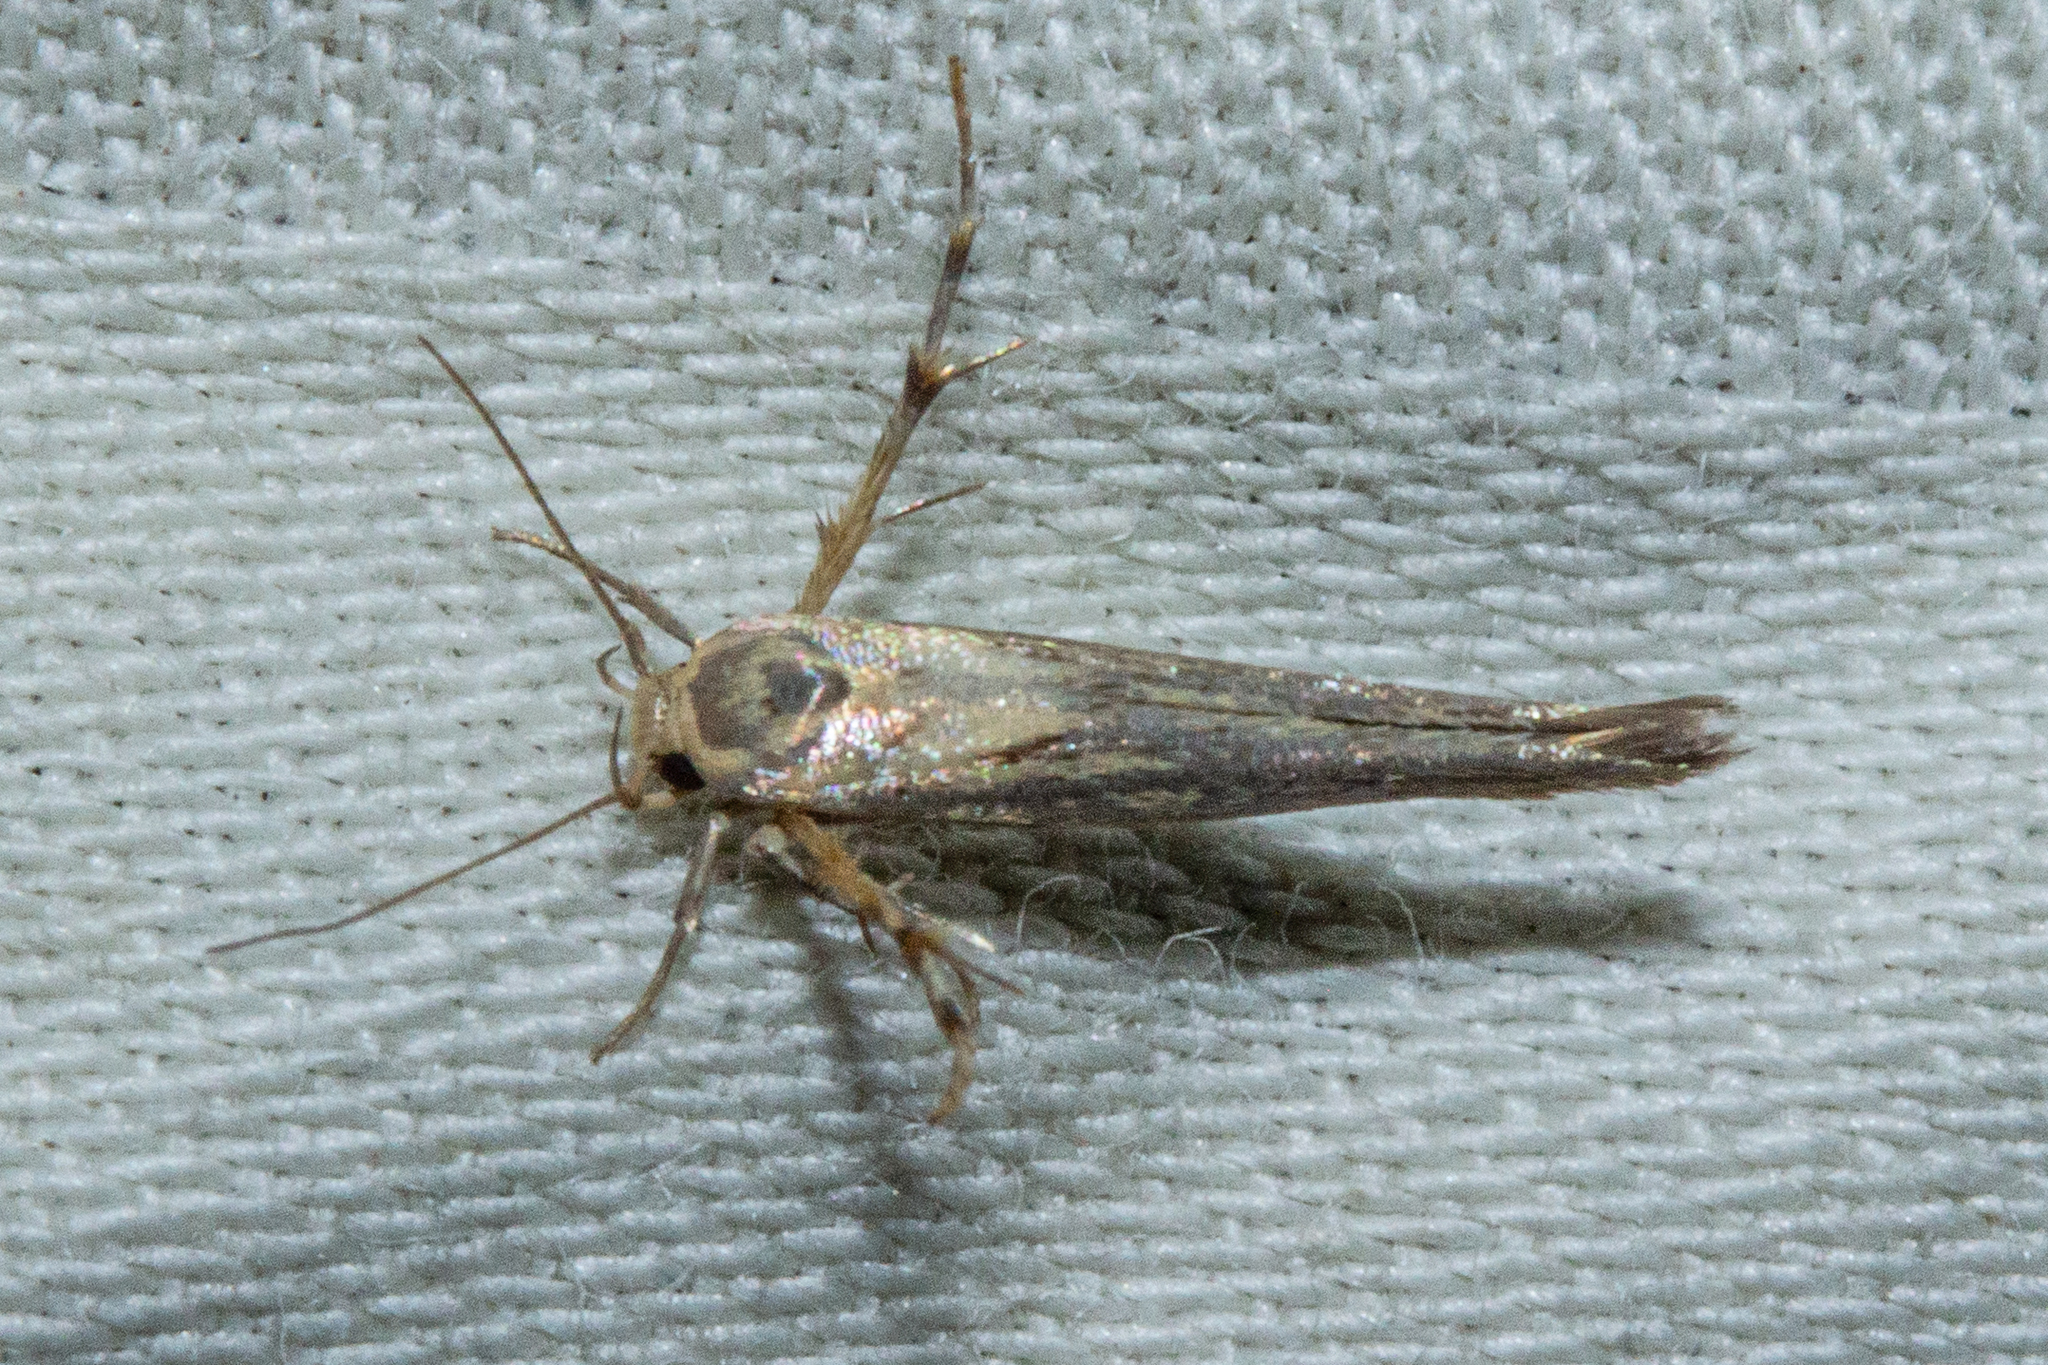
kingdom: Animalia
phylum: Arthropoda
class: Insecta
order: Lepidoptera
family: Stathmopodidae
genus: Stathmopoda
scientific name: Stathmopoda plumbiflua
